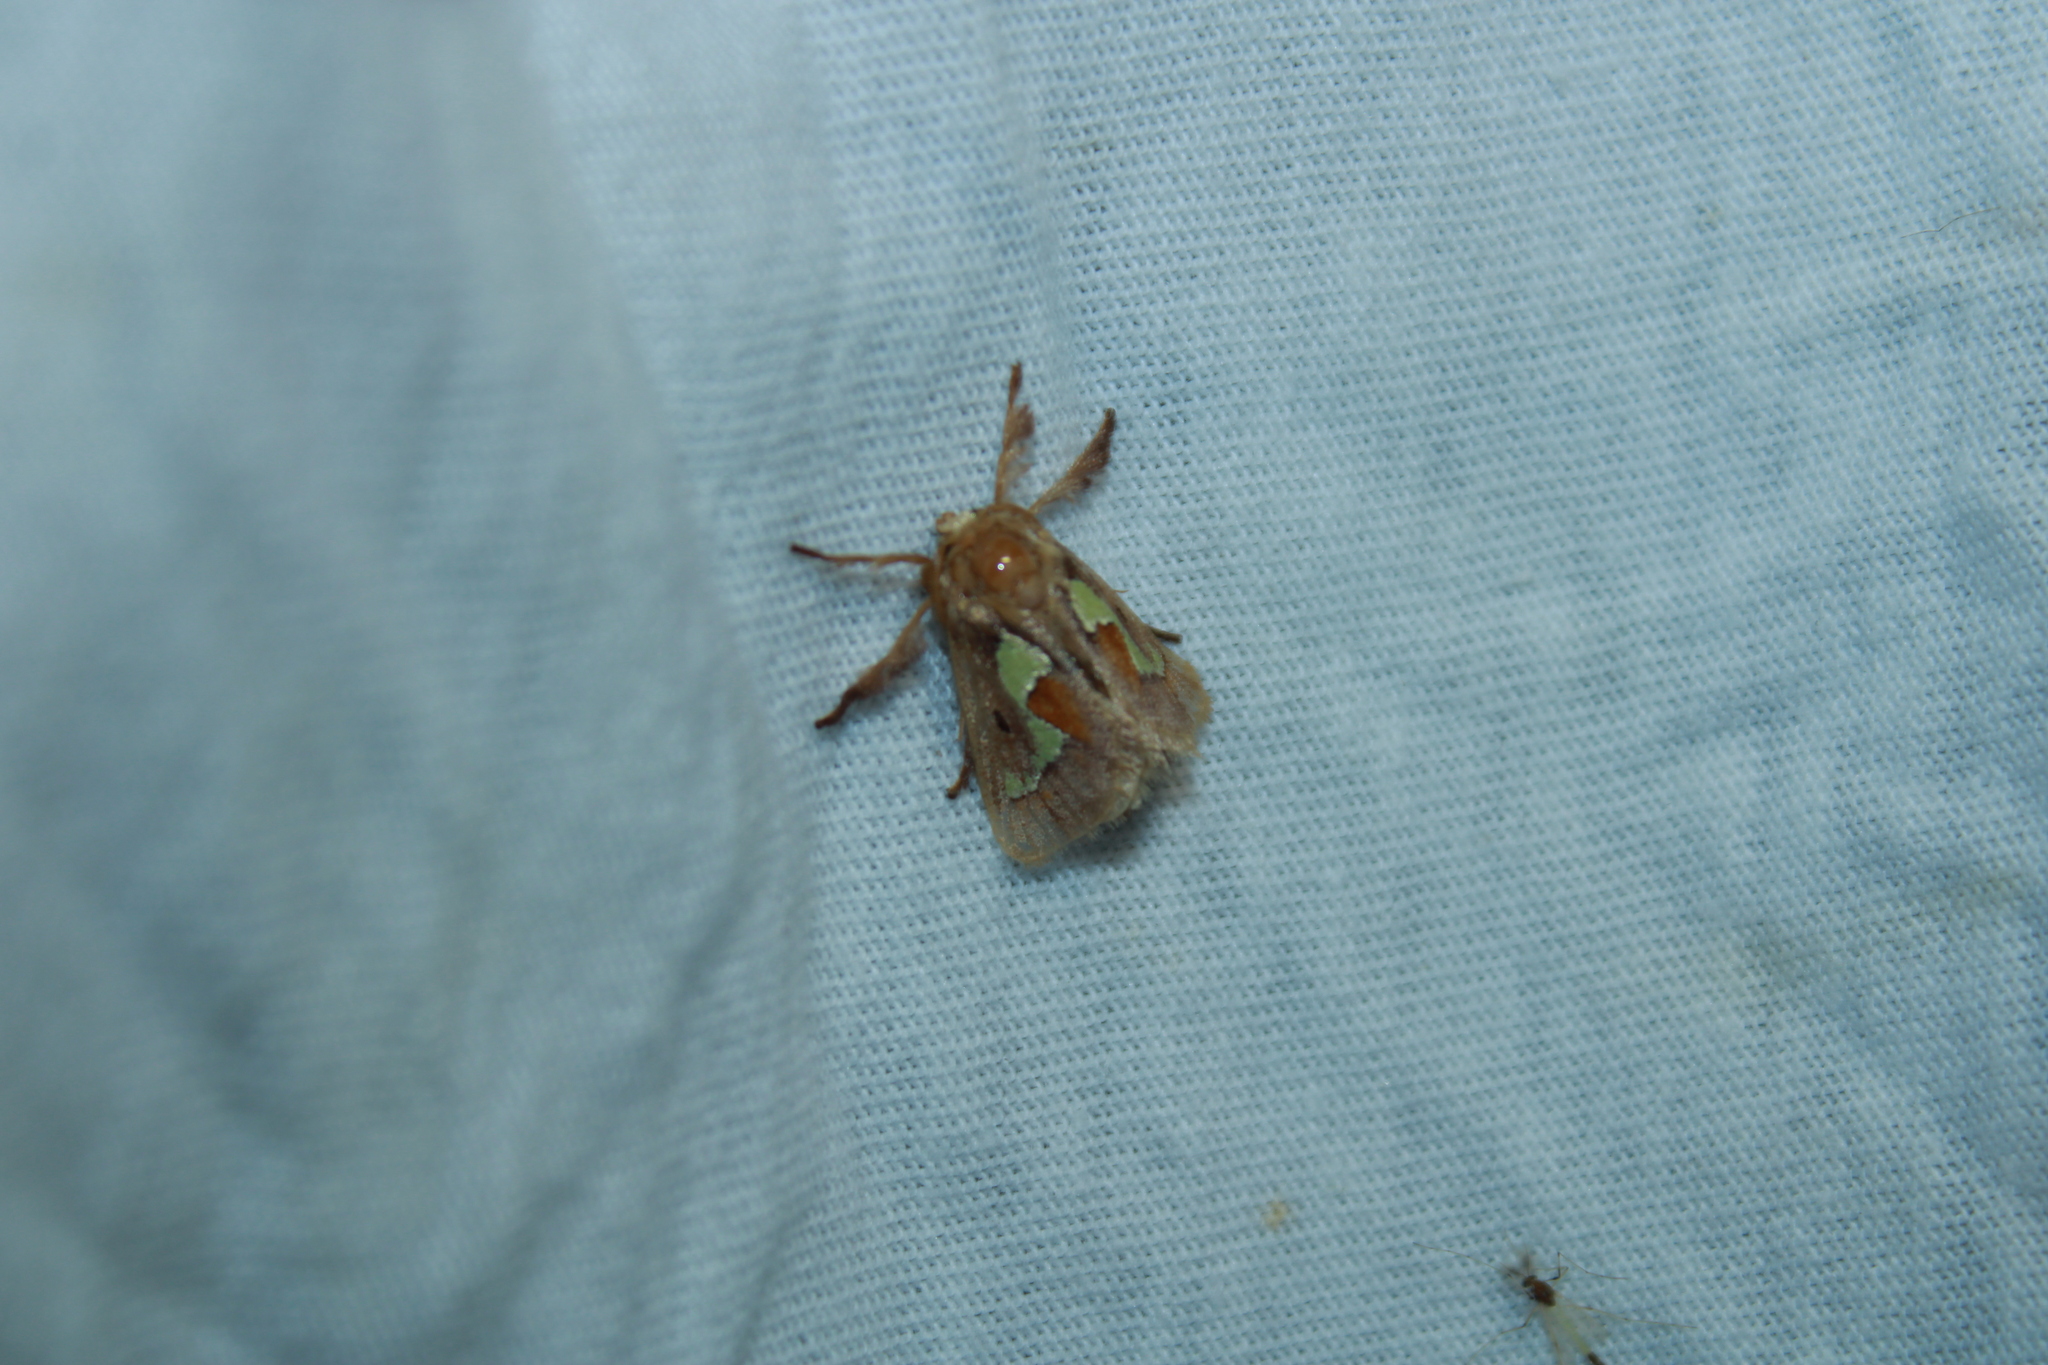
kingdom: Animalia
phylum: Arthropoda
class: Insecta
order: Lepidoptera
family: Limacodidae
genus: Euclea
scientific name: Euclea delphinii
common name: Spiny oak-slug moth
